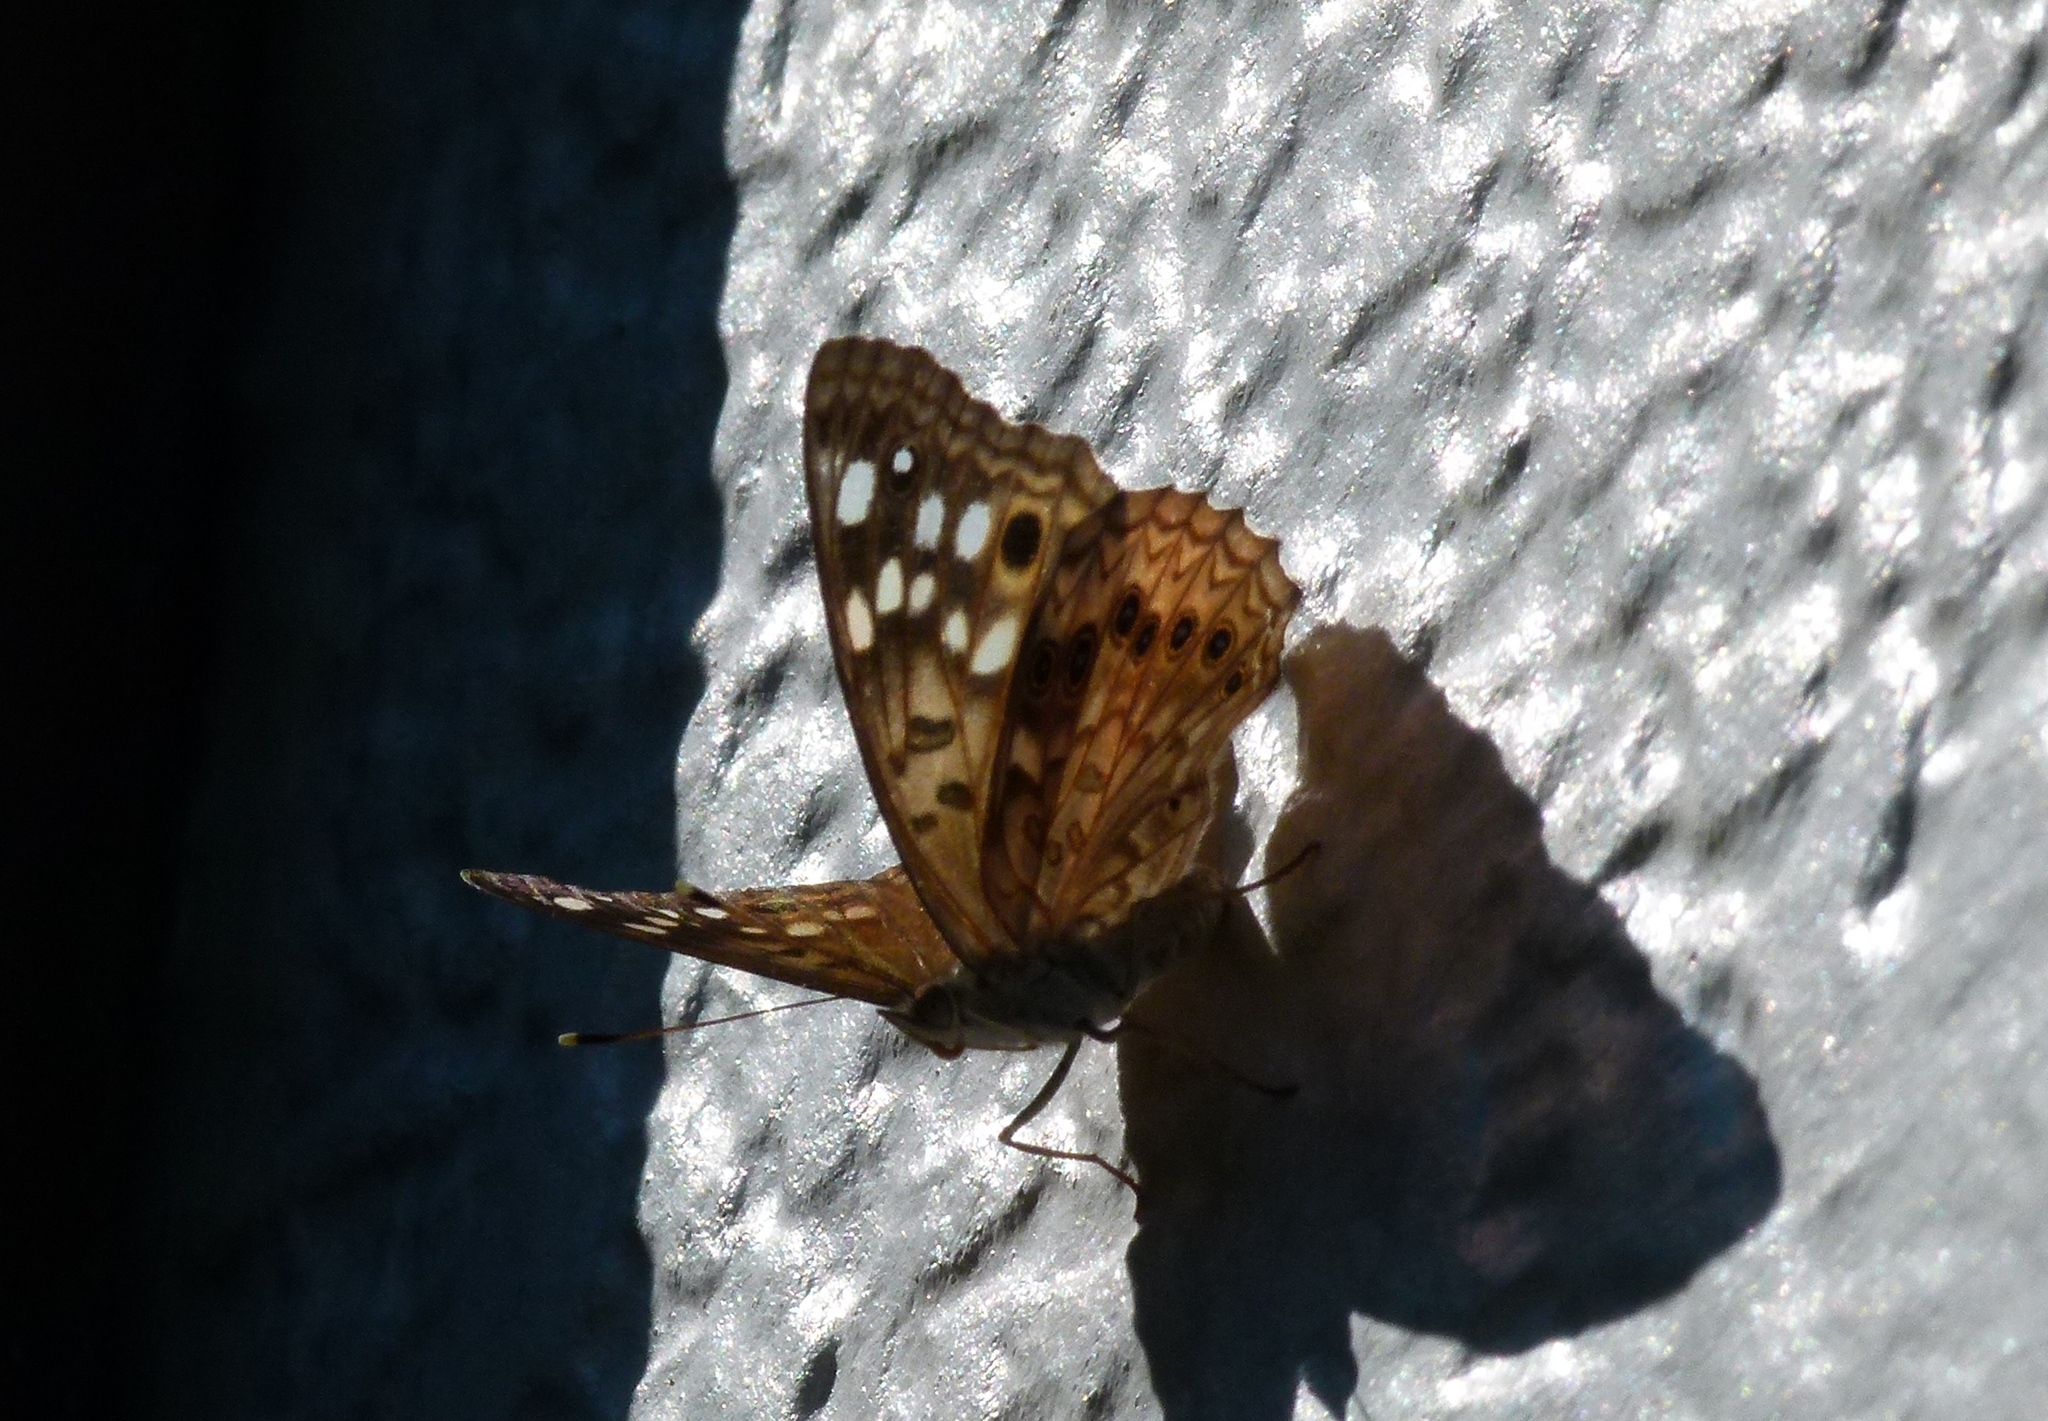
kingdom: Animalia
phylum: Arthropoda
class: Insecta
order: Lepidoptera
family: Nymphalidae
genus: Asterocampa
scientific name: Asterocampa celtis
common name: Hackberry emperor
